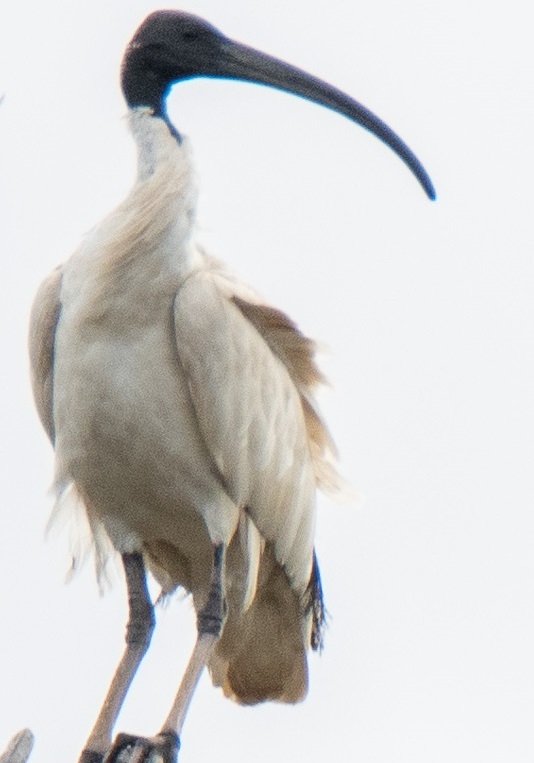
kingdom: Animalia
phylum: Chordata
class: Aves
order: Pelecaniformes
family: Threskiornithidae
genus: Threskiornis
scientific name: Threskiornis molucca
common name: Australian white ibis
